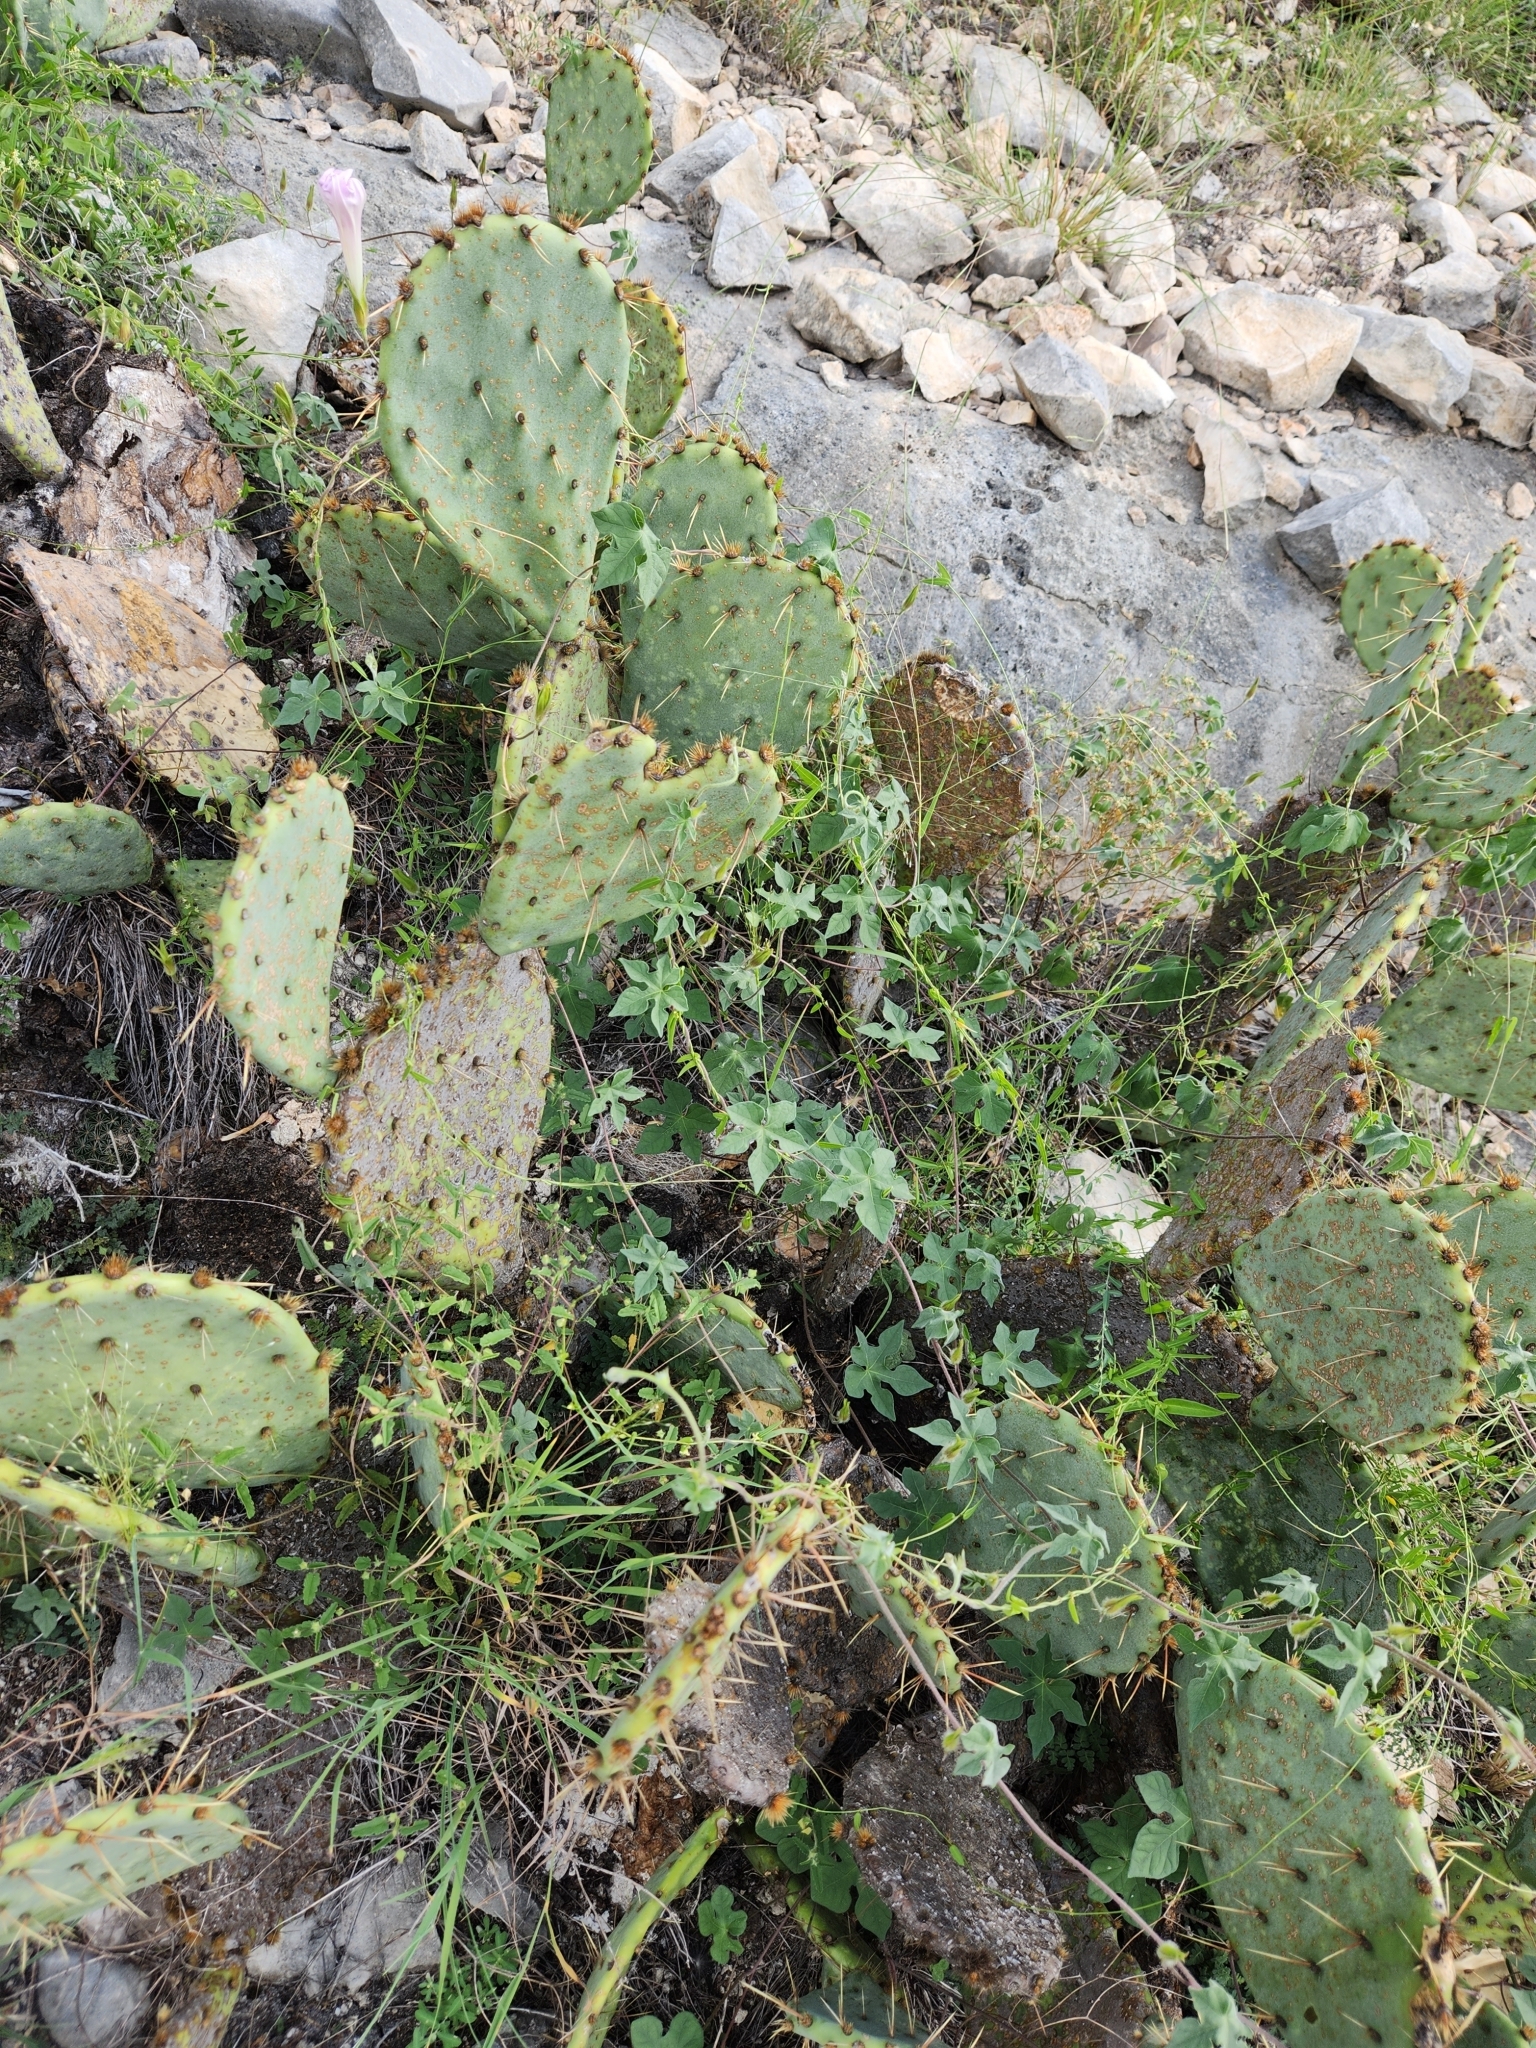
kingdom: Plantae
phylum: Tracheophyta
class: Magnoliopsida
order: Solanales
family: Convolvulaceae
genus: Ipomoea
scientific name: Ipomoea lindheimeri
